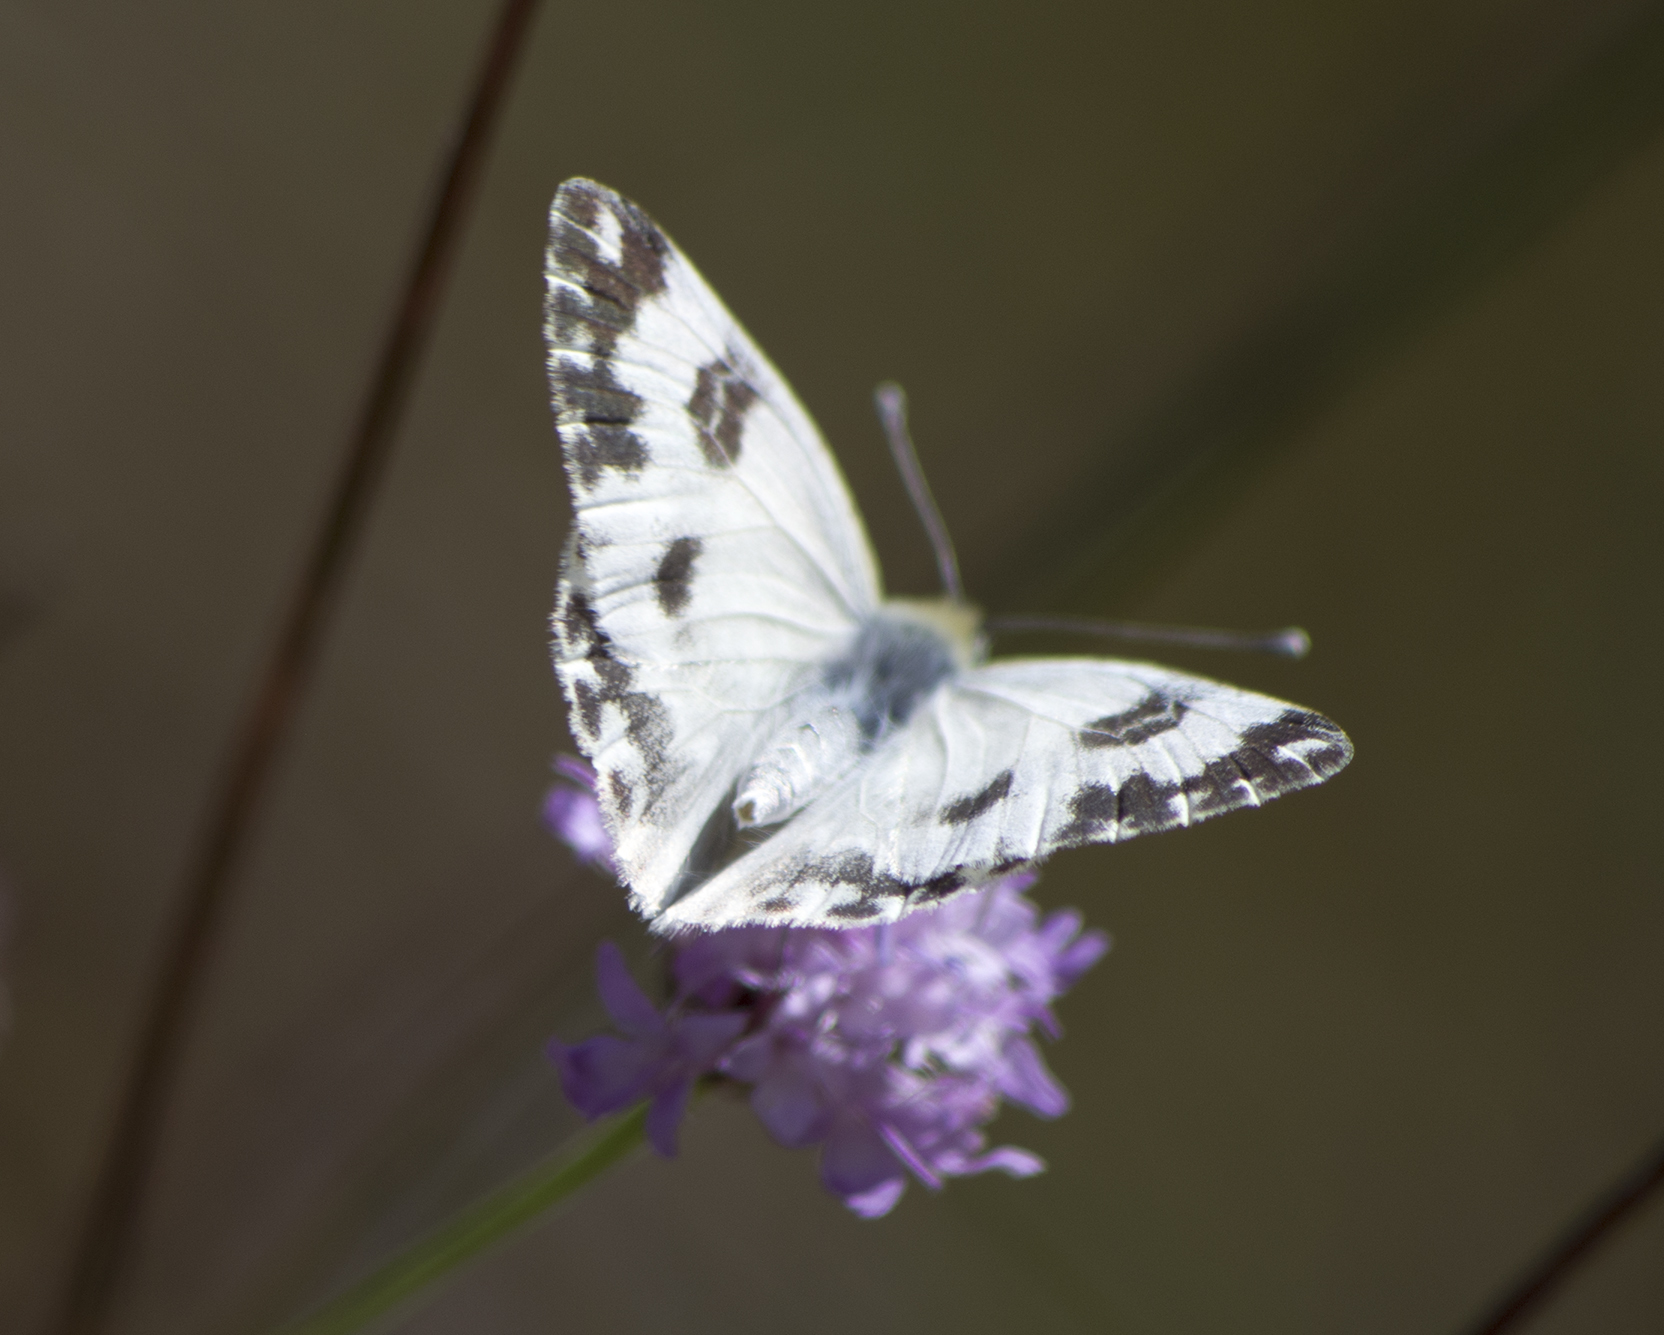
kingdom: Animalia
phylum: Arthropoda
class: Insecta
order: Lepidoptera
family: Pieridae
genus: Pontia
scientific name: Pontia edusa
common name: Eastern bath white
